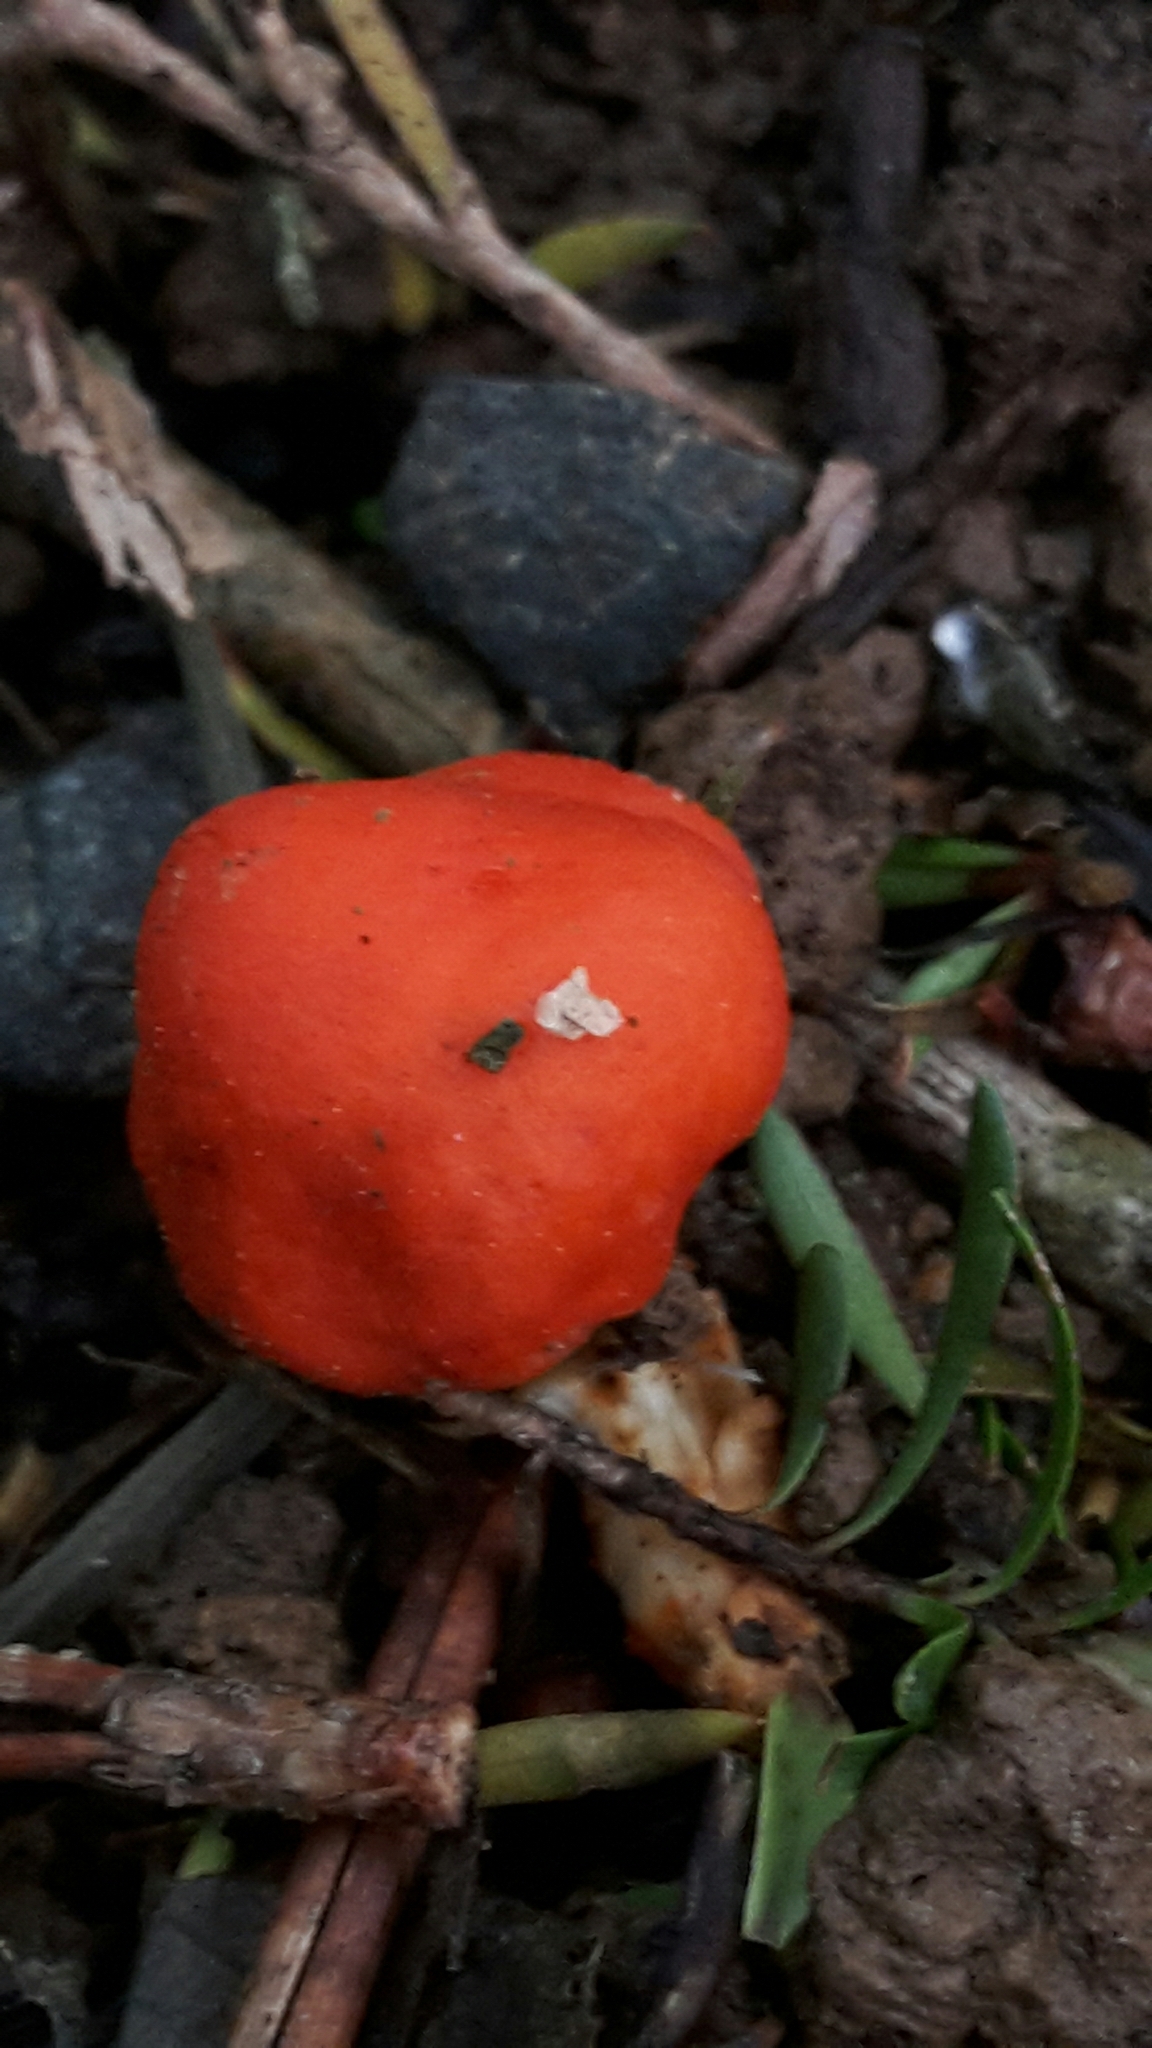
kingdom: Fungi
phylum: Basidiomycota
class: Agaricomycetes
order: Agaricales
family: Strophariaceae
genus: Leratiomyces
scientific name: Leratiomyces erythrocephalus
